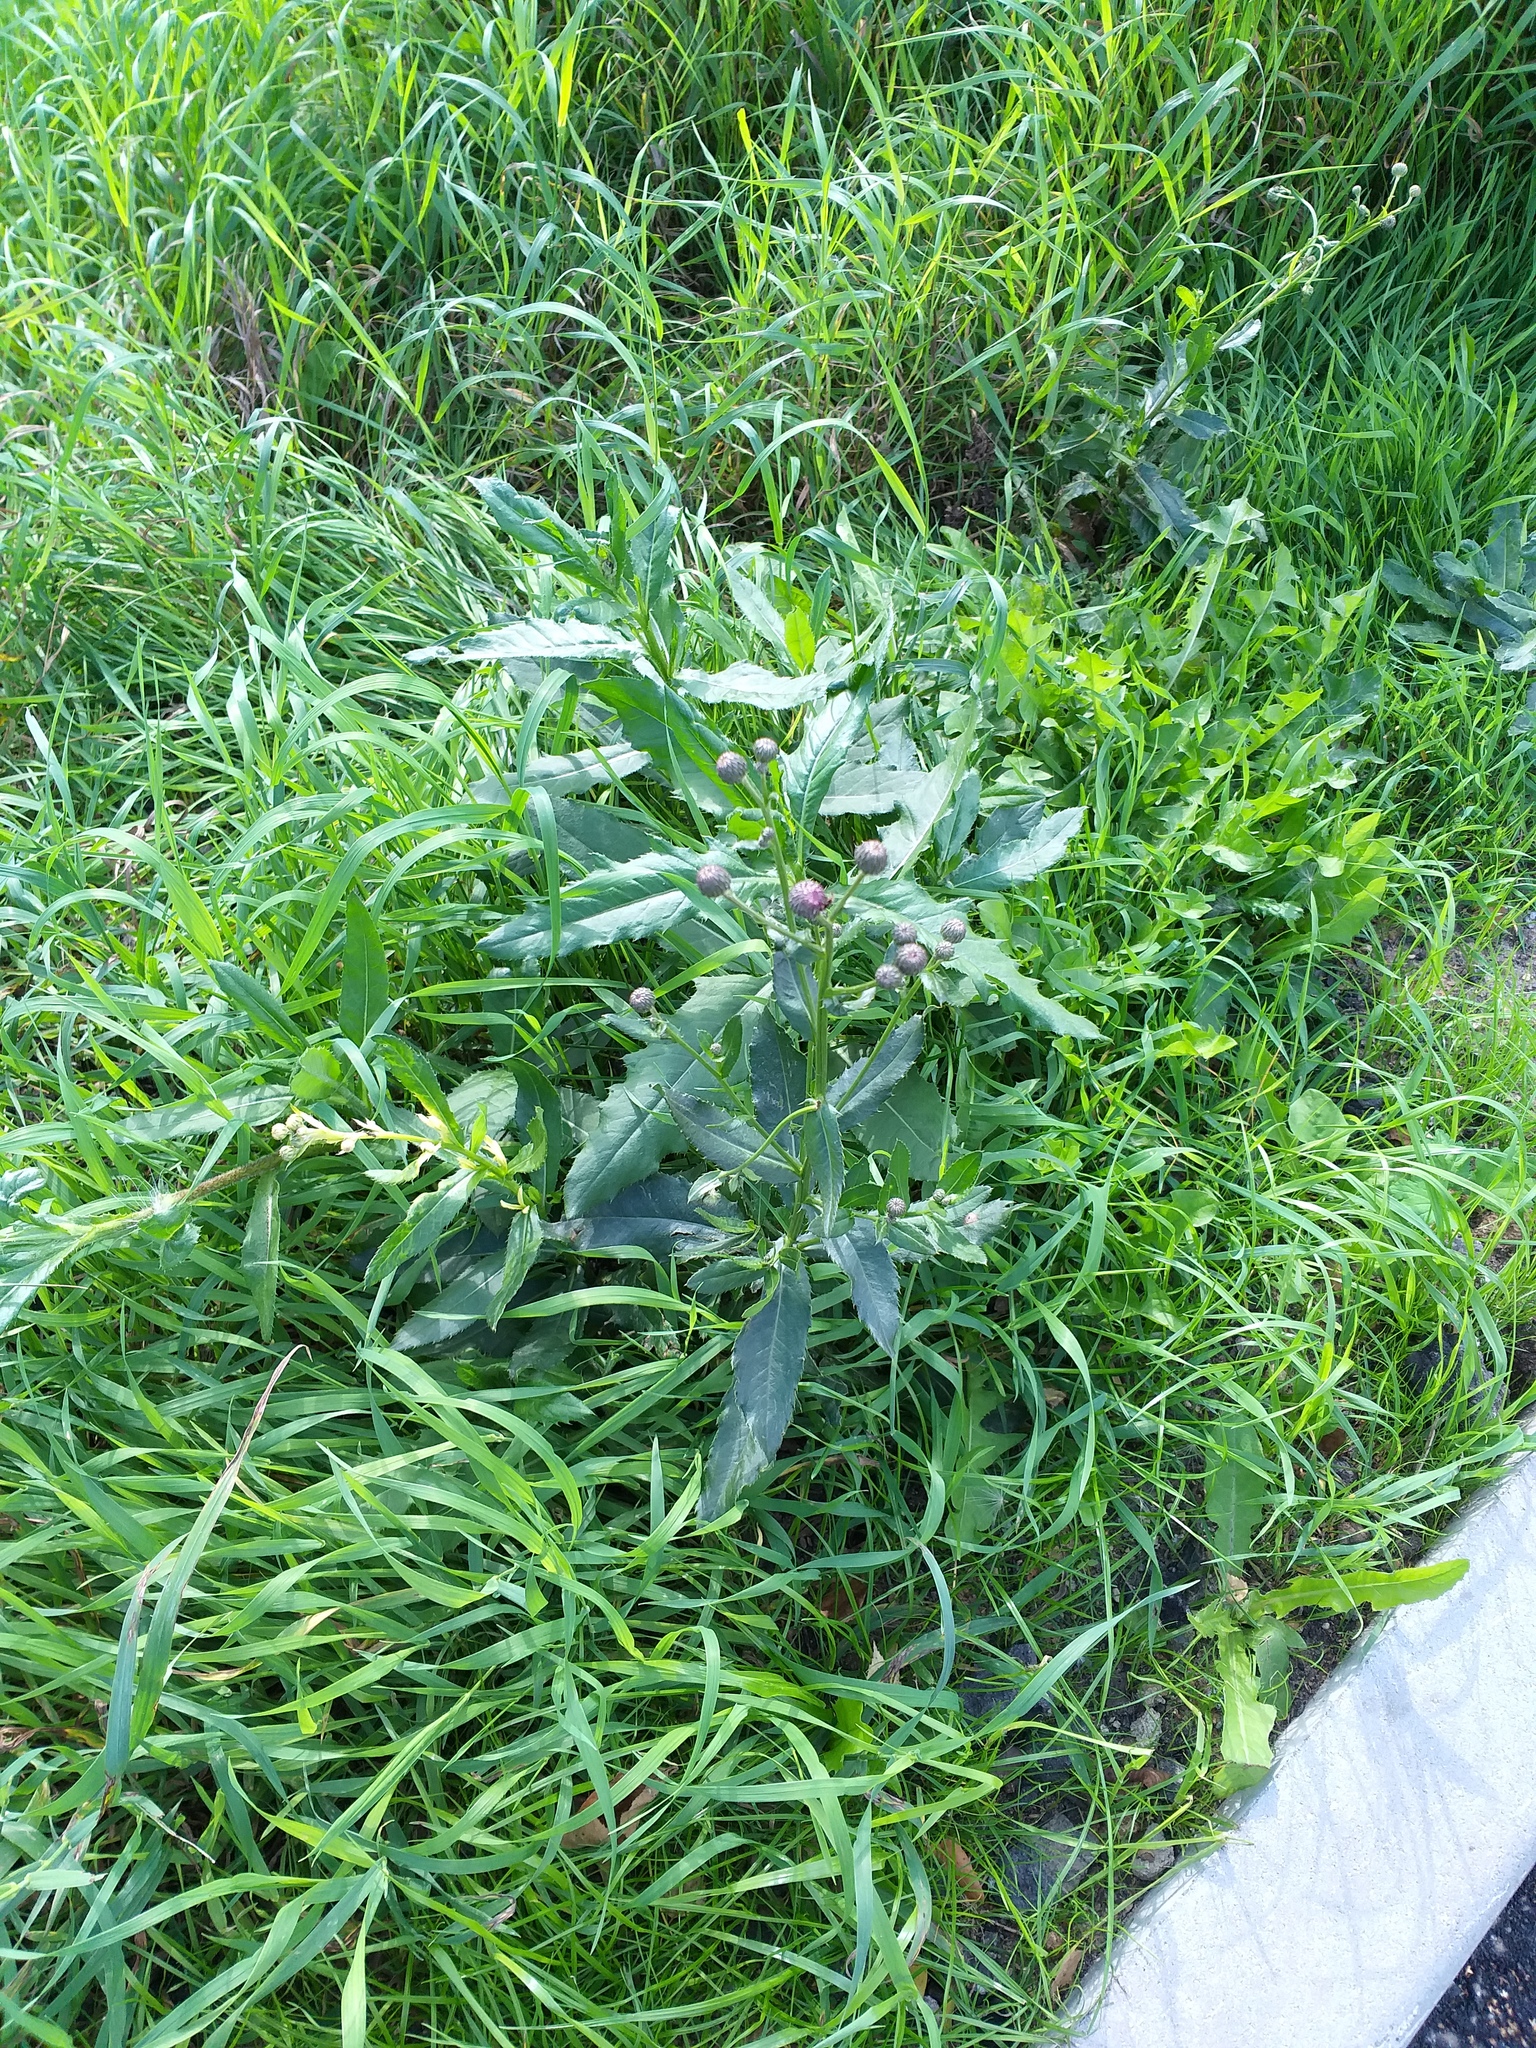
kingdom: Plantae
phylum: Tracheophyta
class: Magnoliopsida
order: Asterales
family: Asteraceae
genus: Cirsium
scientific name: Cirsium arvense
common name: Creeping thistle
